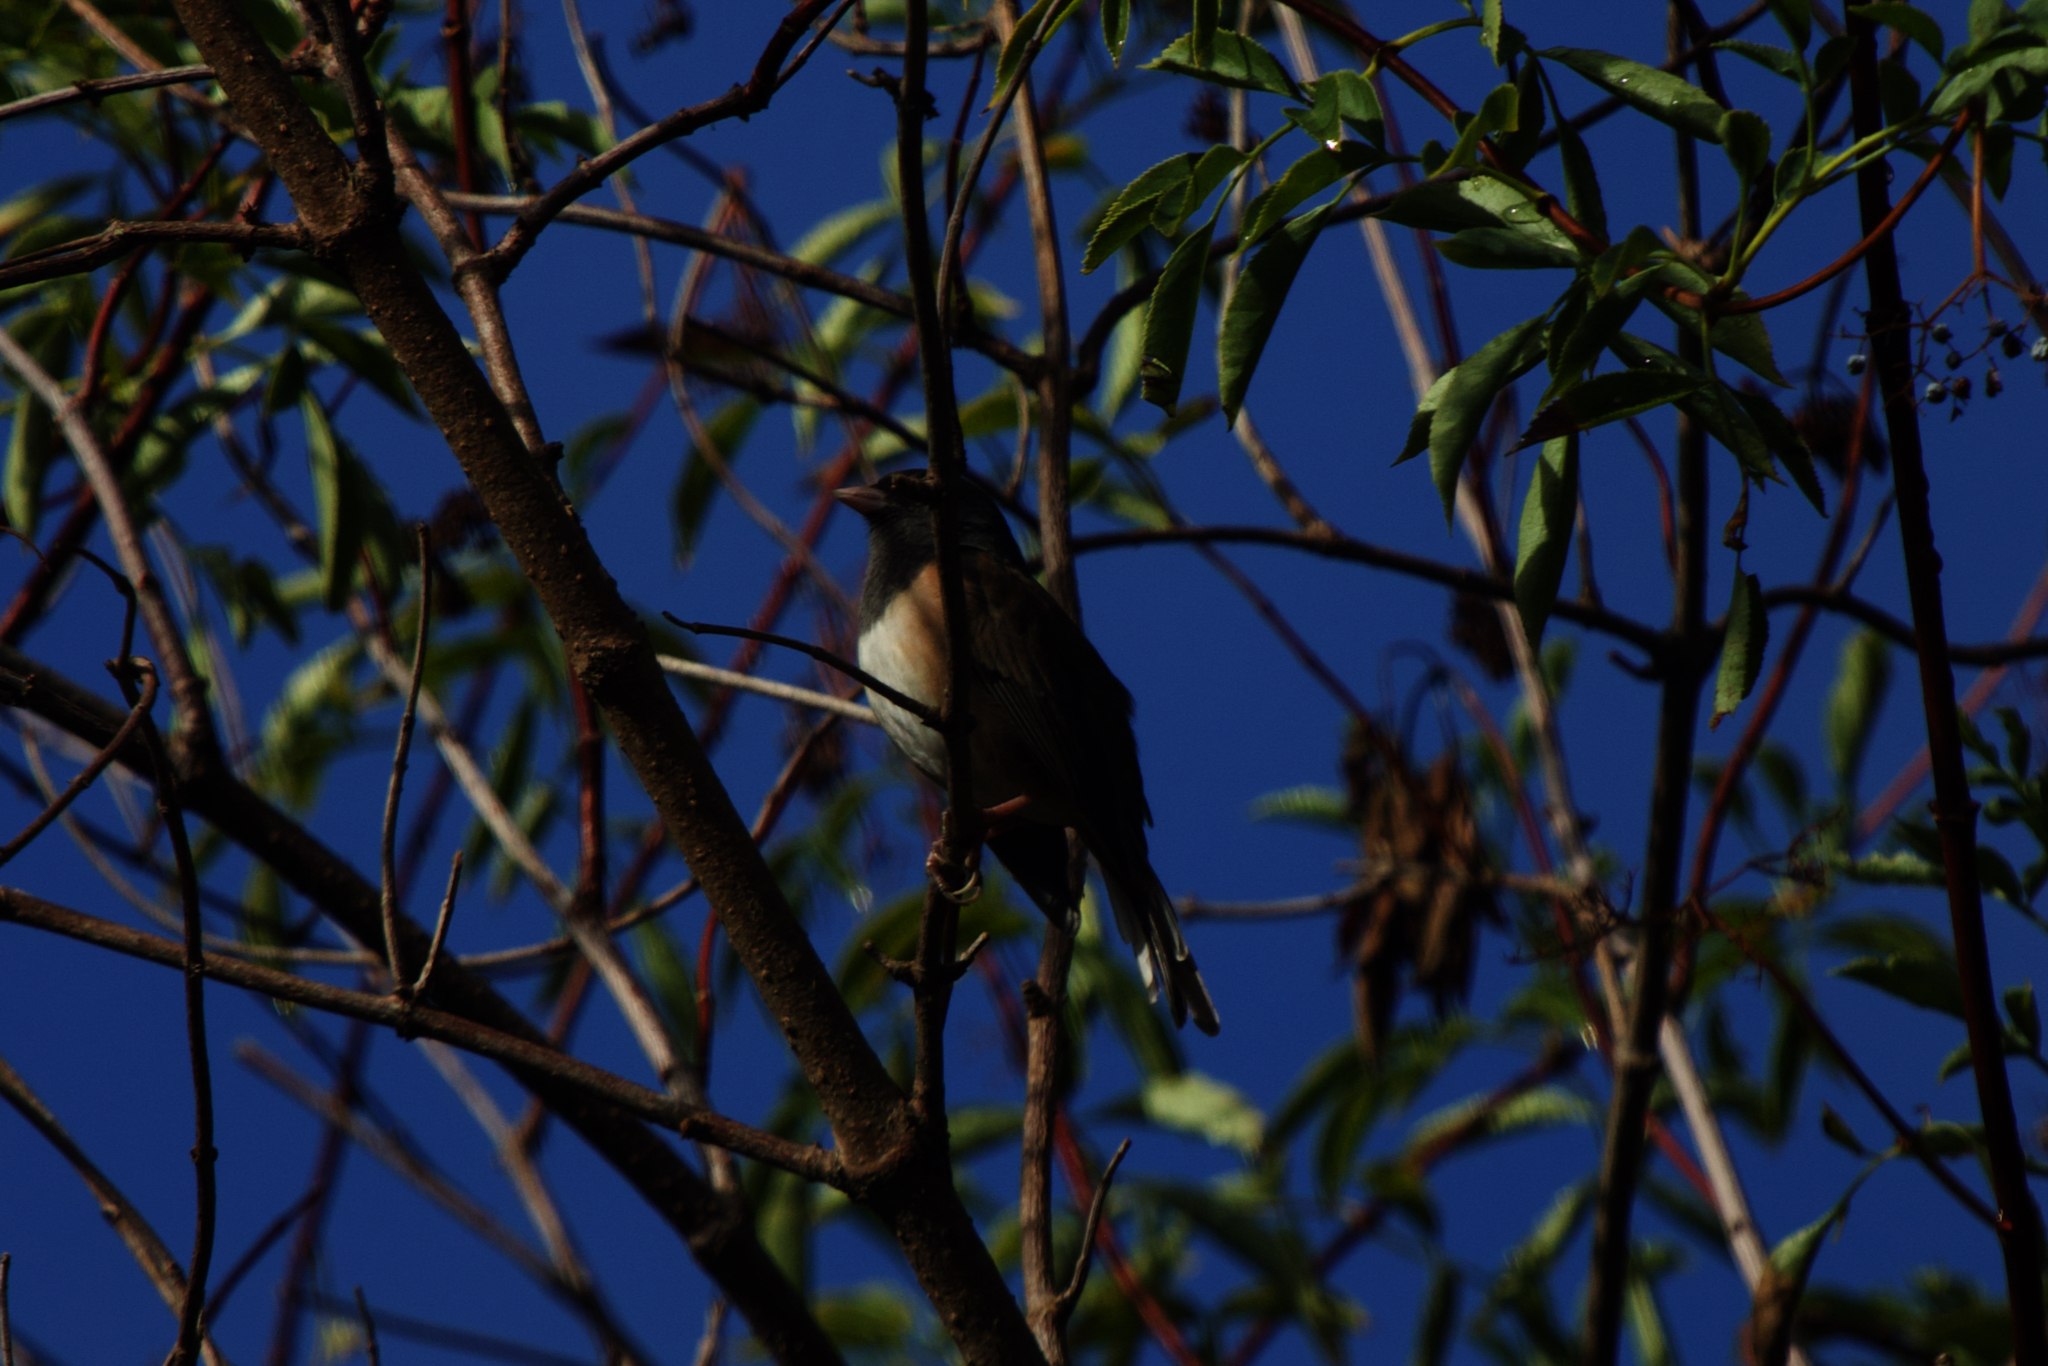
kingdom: Animalia
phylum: Chordata
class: Aves
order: Passeriformes
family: Passerellidae
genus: Junco
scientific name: Junco hyemalis
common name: Dark-eyed junco
